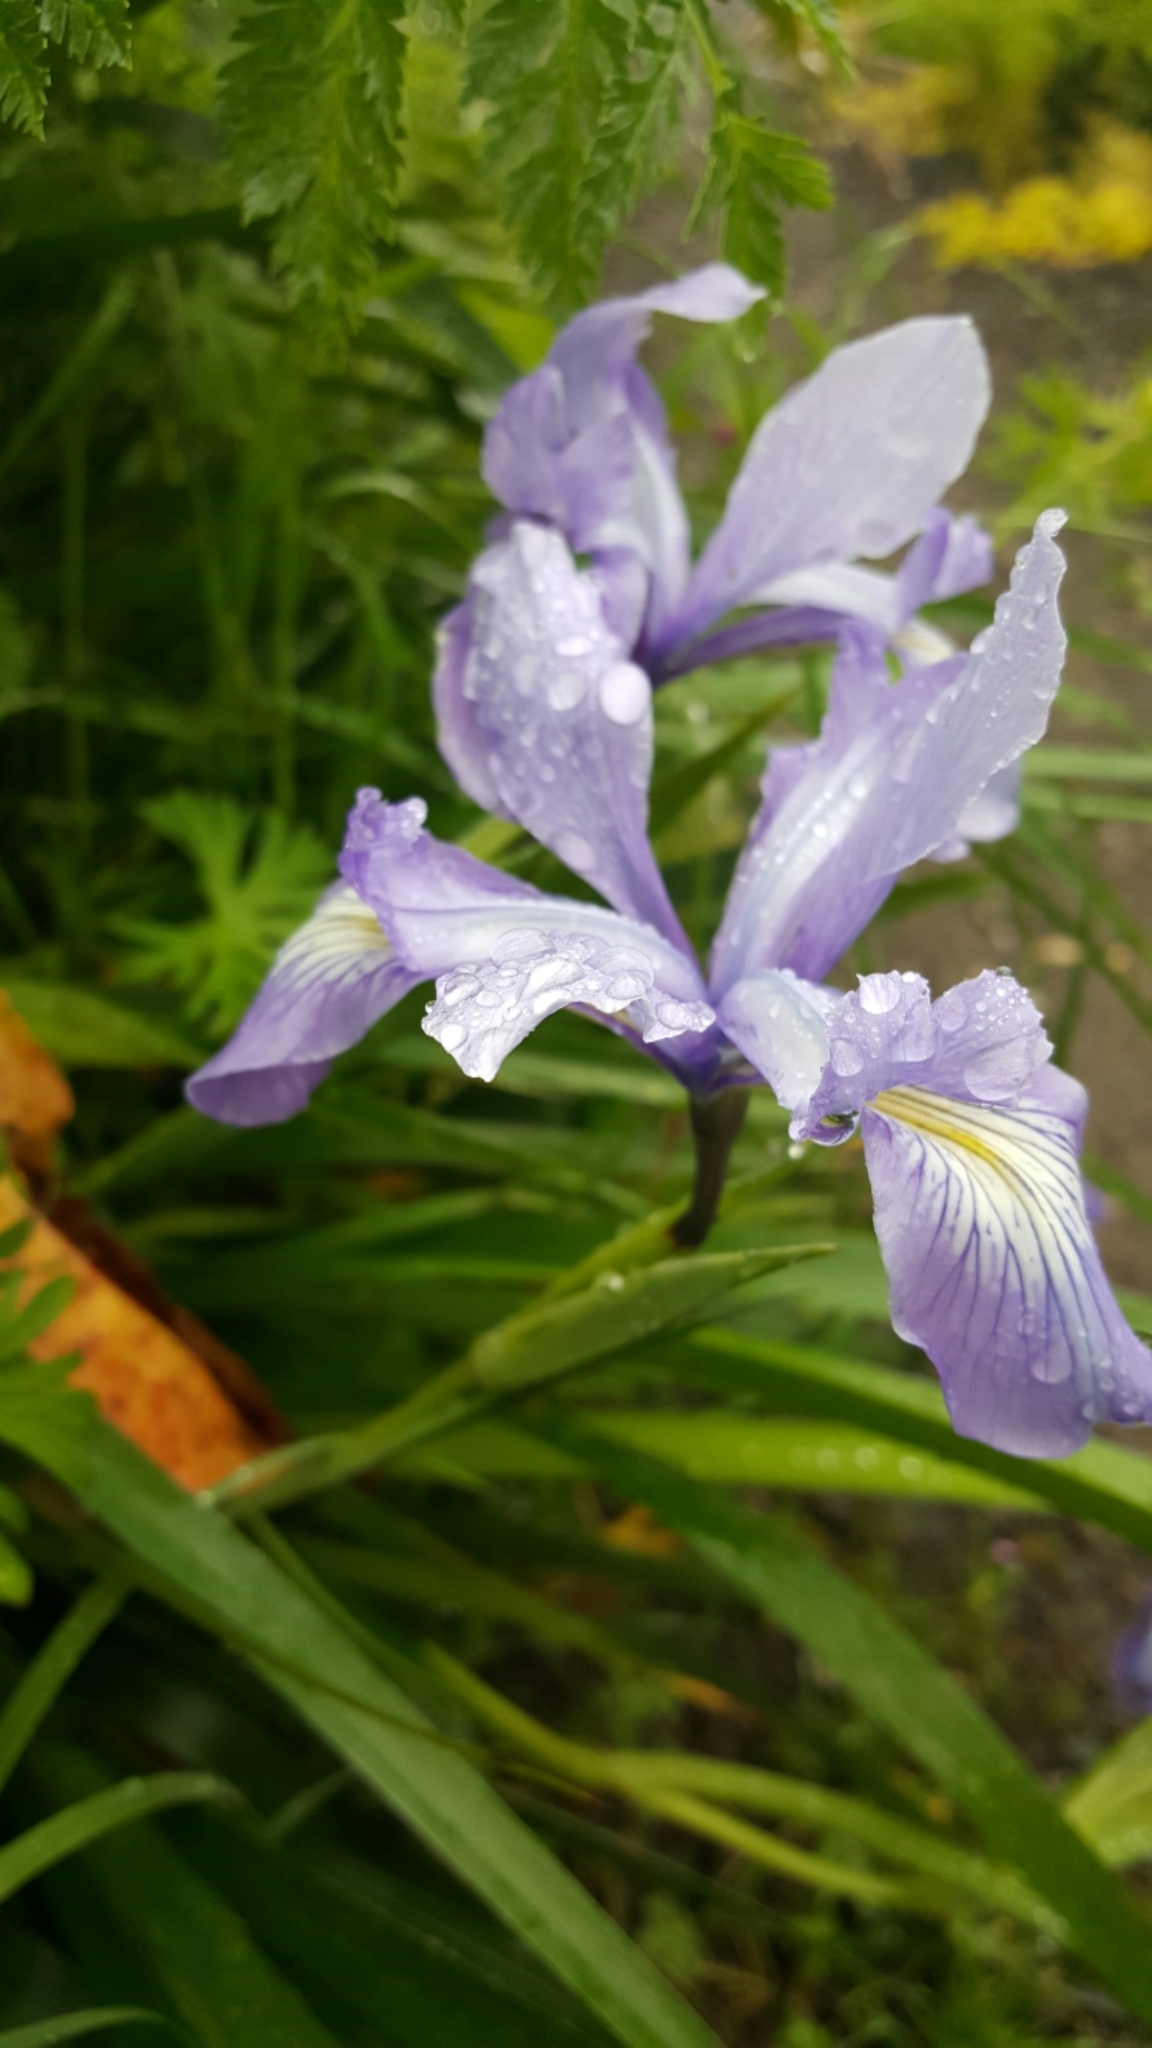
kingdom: Plantae
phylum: Tracheophyta
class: Liliopsida
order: Asparagales
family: Iridaceae
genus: Iris
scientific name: Iris douglasiana
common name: Marin iris
